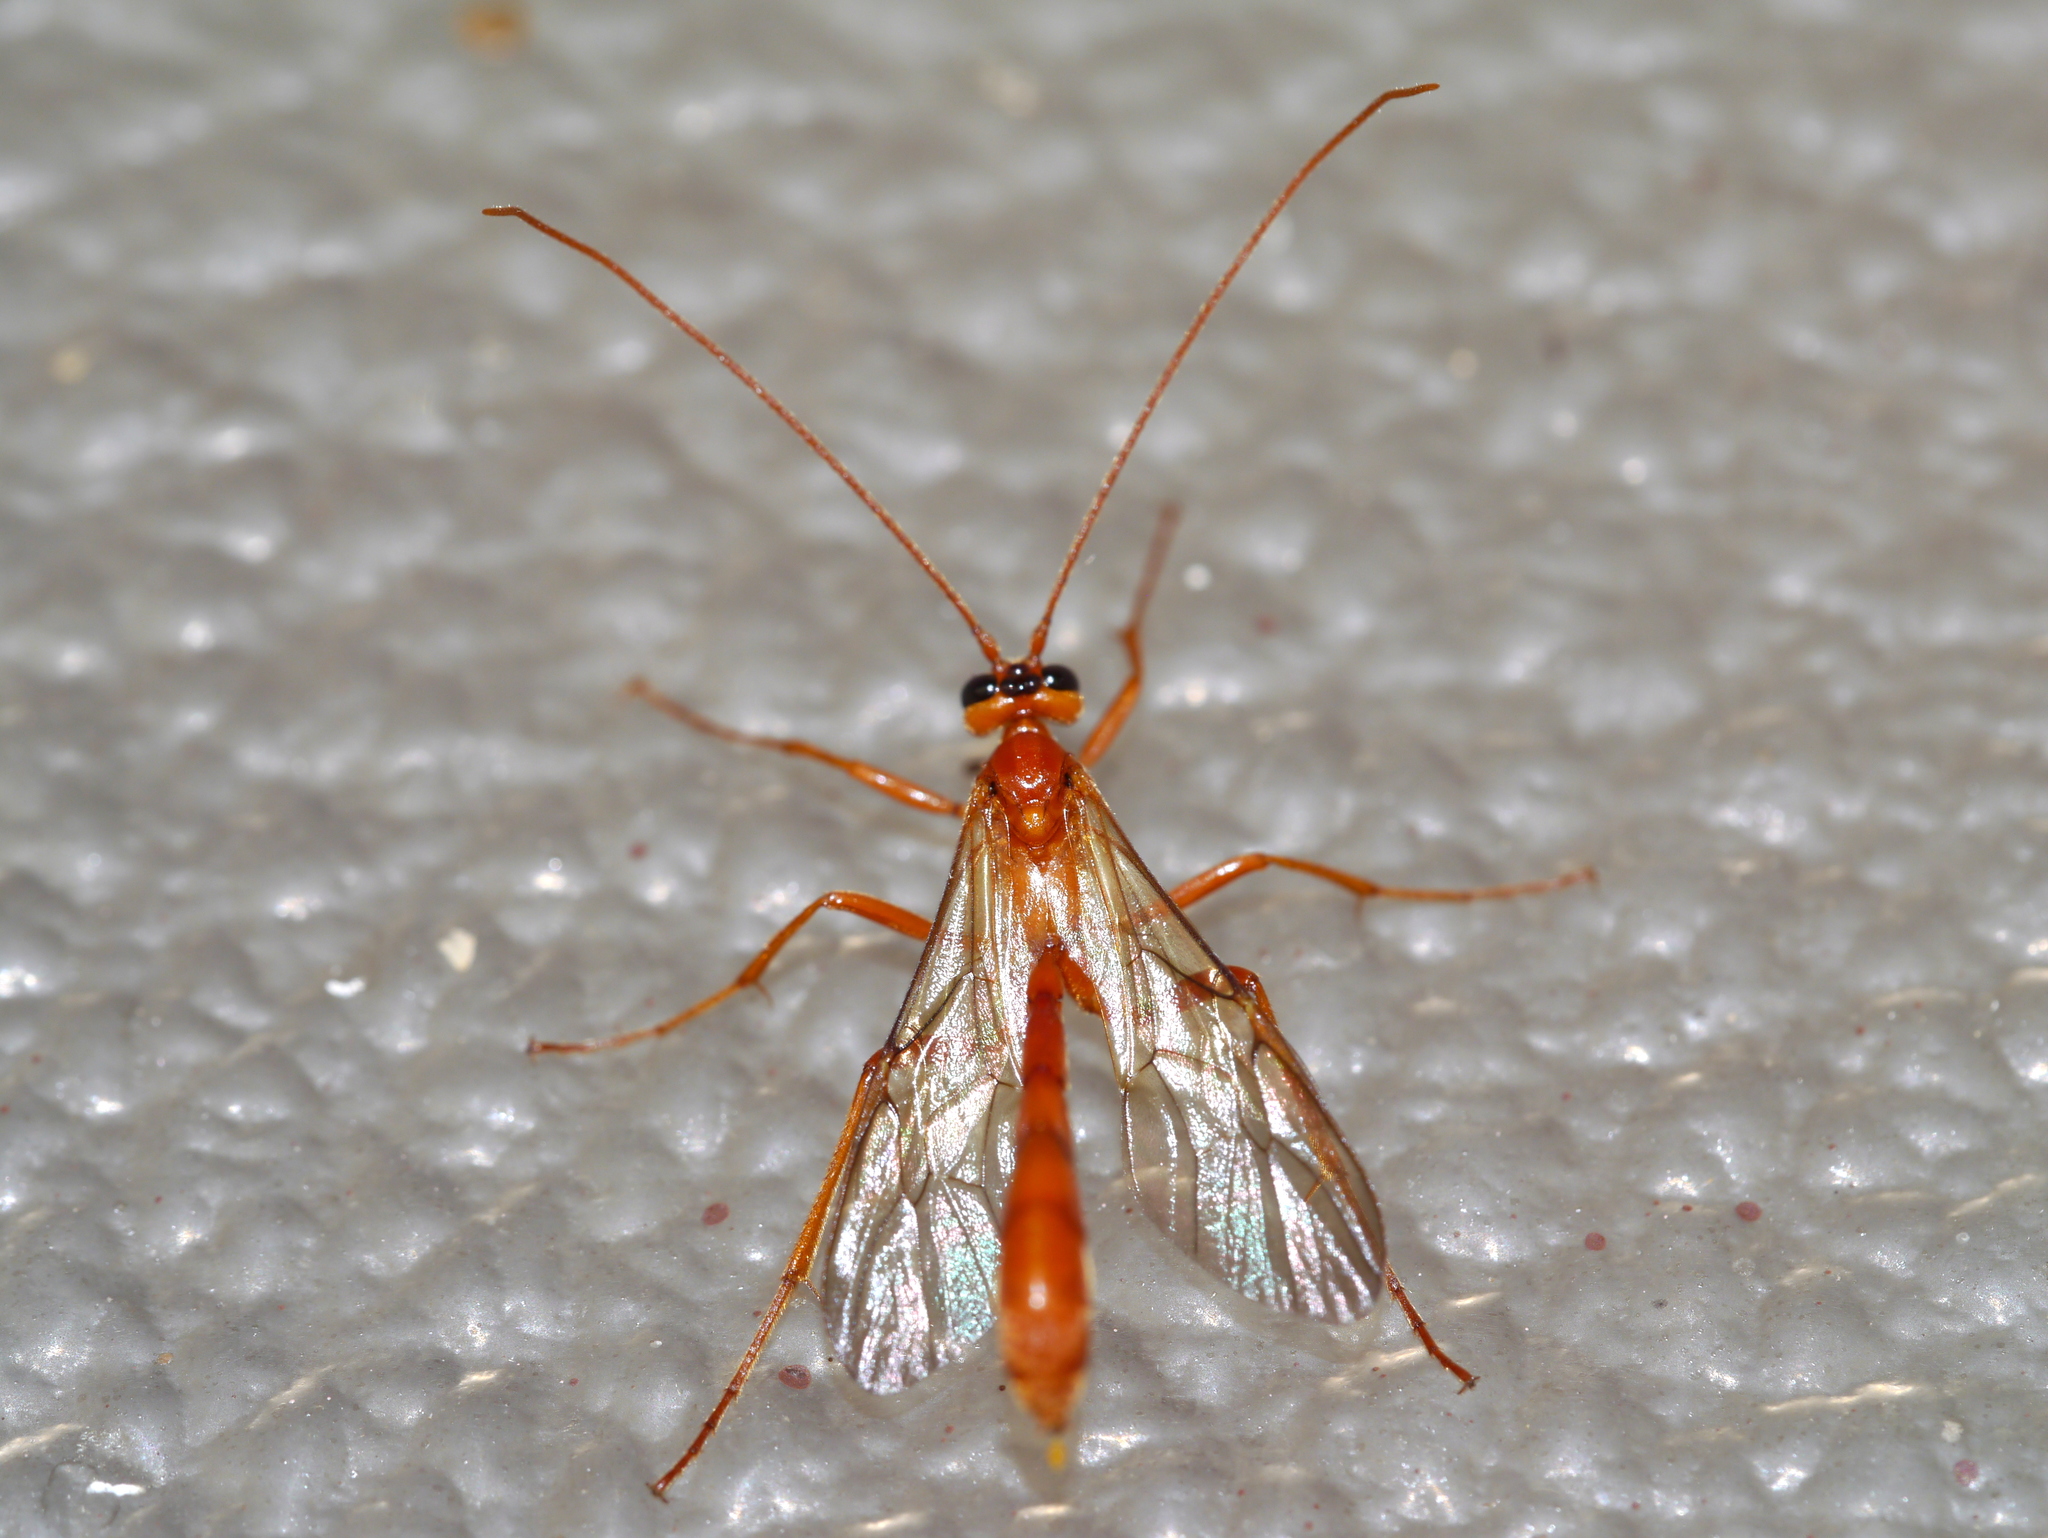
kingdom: Animalia
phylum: Arthropoda
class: Insecta
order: Hymenoptera
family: Ichneumonidae
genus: Eremotylus
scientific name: Eremotylus
